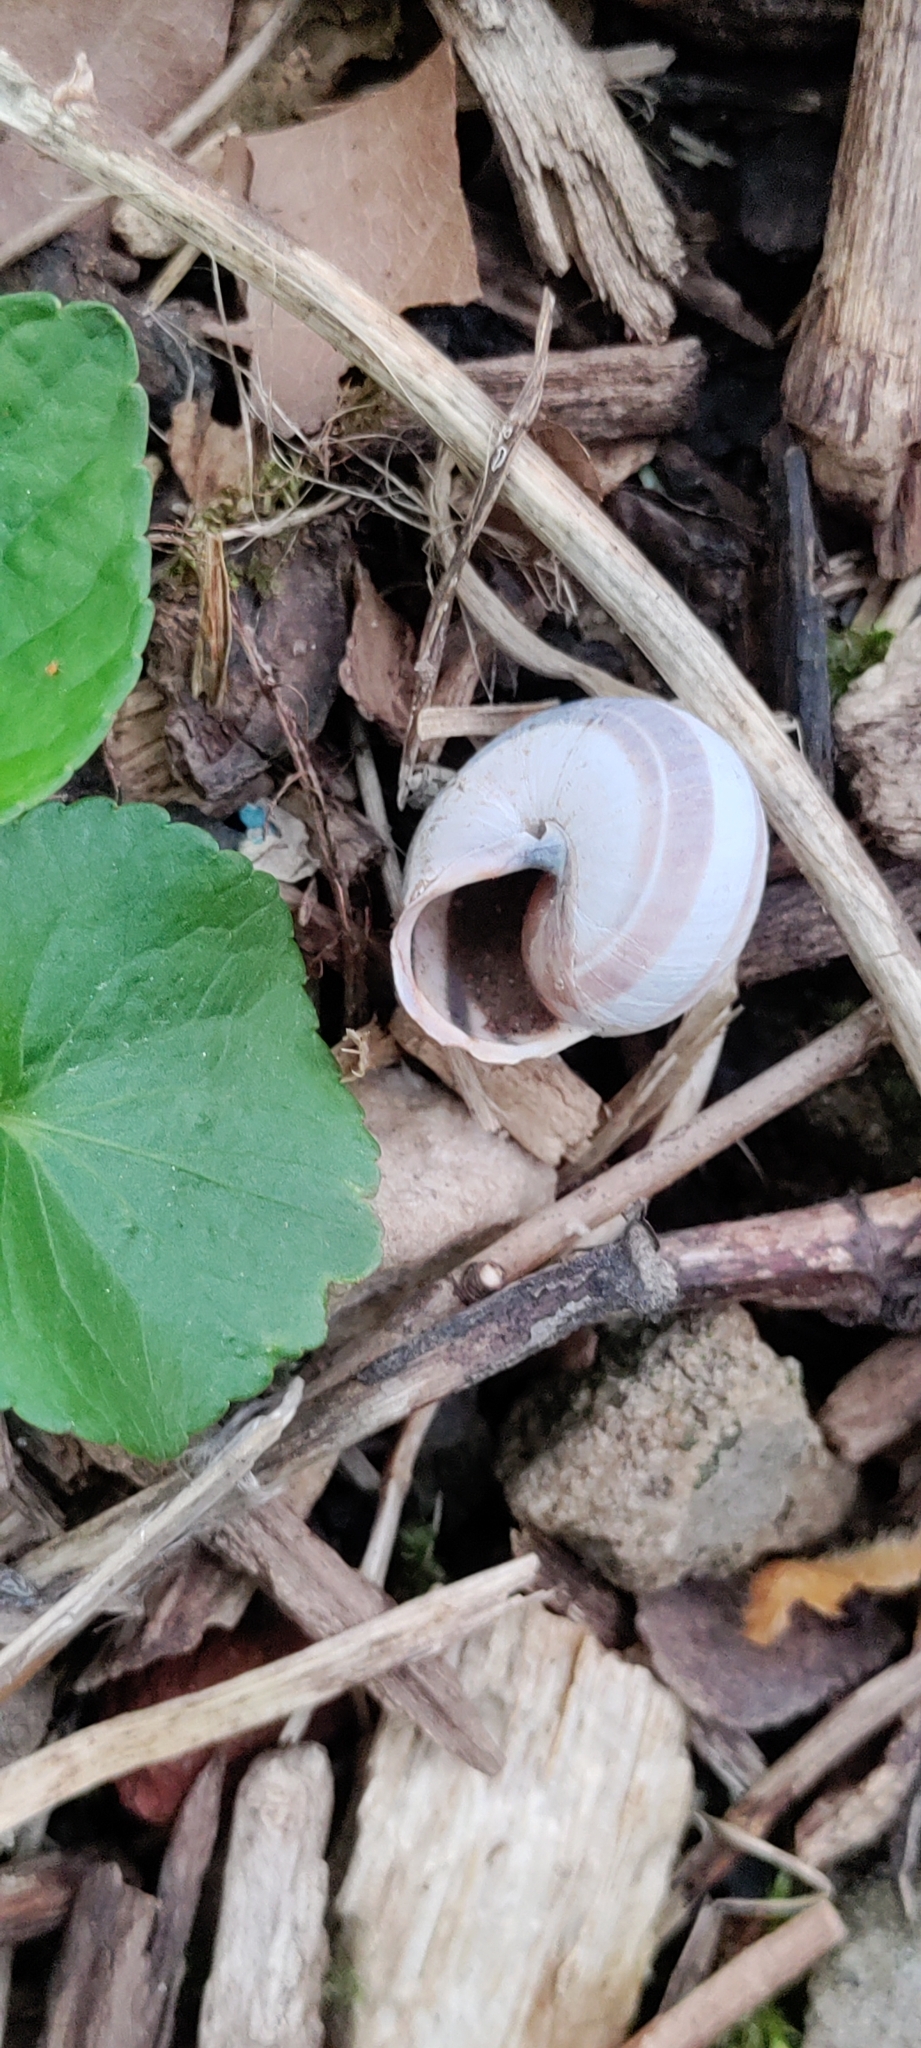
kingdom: Animalia
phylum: Mollusca
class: Gastropoda
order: Stylommatophora
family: Helicidae
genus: Cepaea
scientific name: Cepaea nemoralis
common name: Grovesnail
